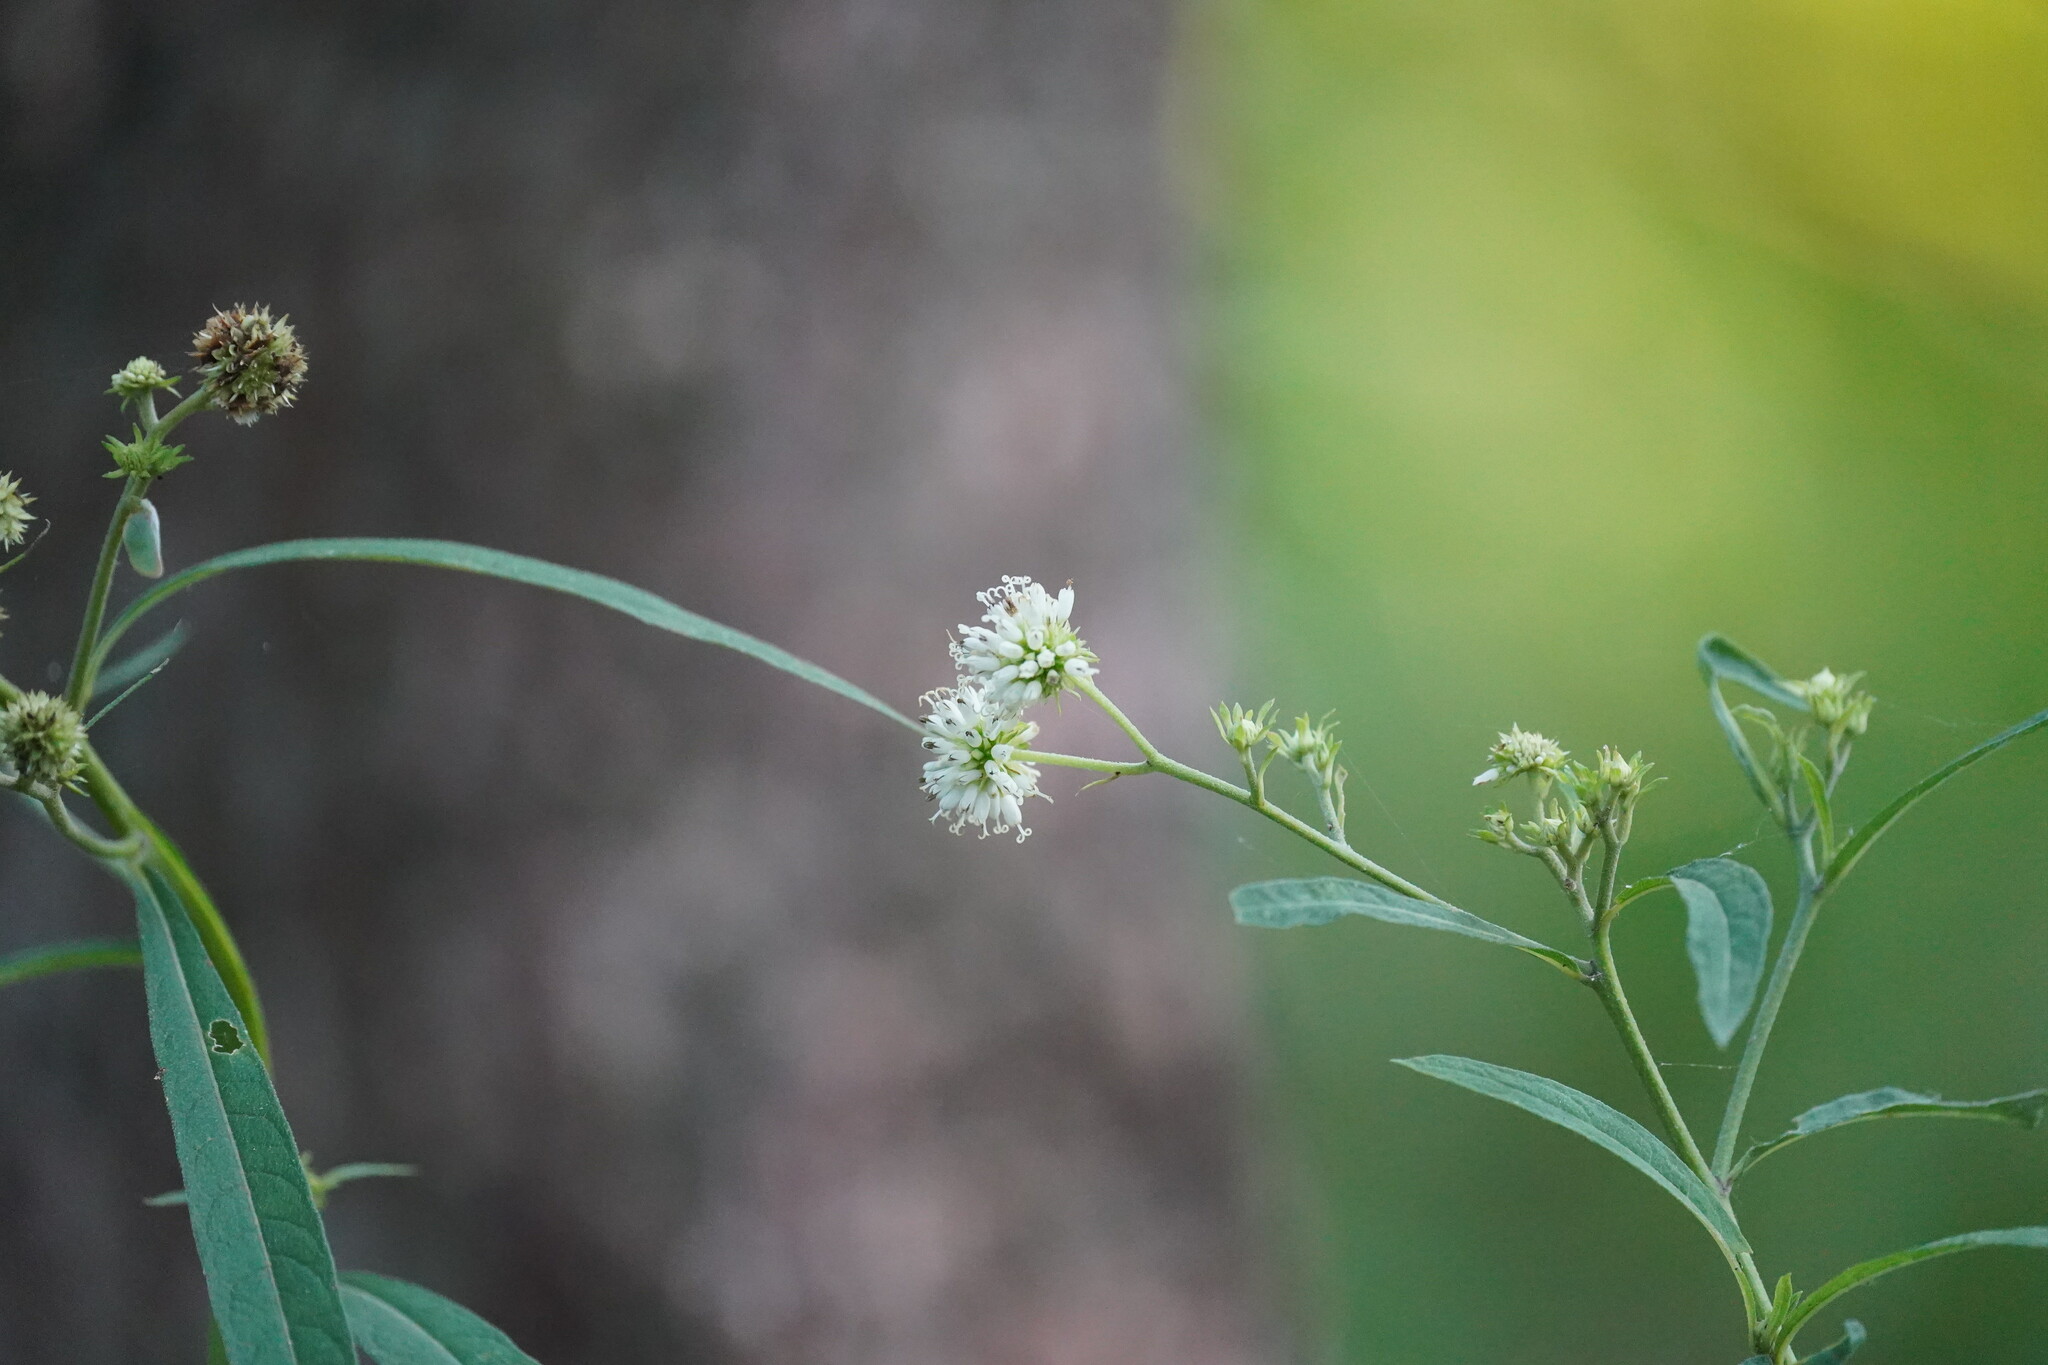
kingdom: Plantae
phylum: Tracheophyta
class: Magnoliopsida
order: Asterales
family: Asteraceae
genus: Verbesina
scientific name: Verbesina walteri
